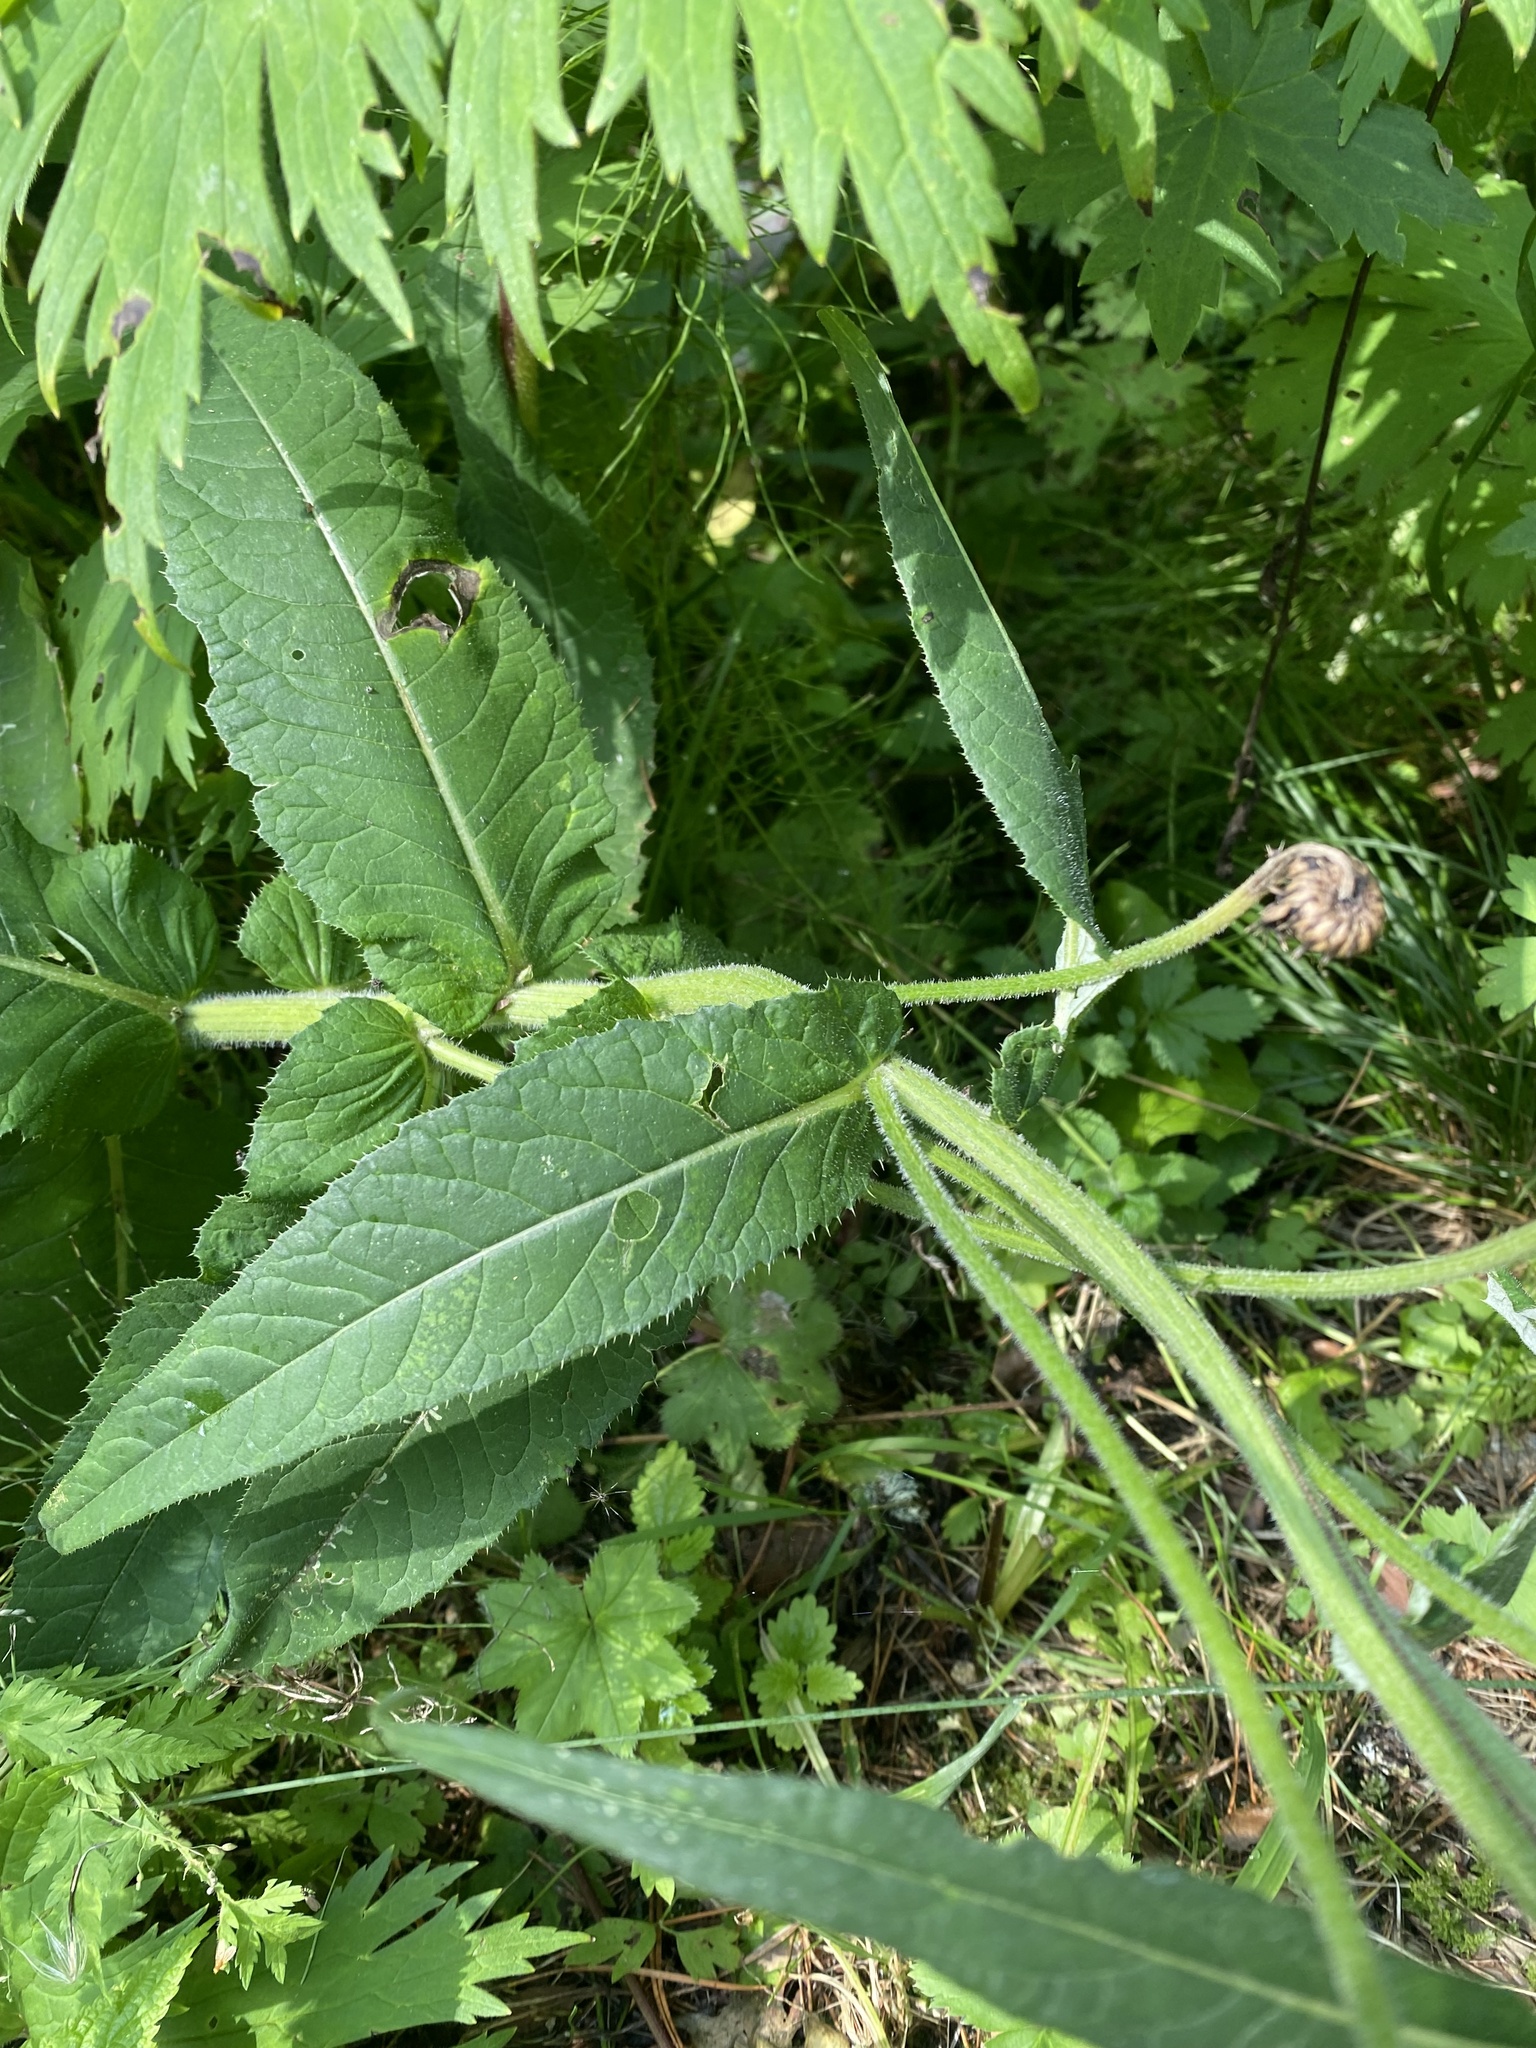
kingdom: Plantae
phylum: Tracheophyta
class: Magnoliopsida
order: Asterales
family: Asteraceae
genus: Cirsium
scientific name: Cirsium helenioides
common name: Melancholy thistle
